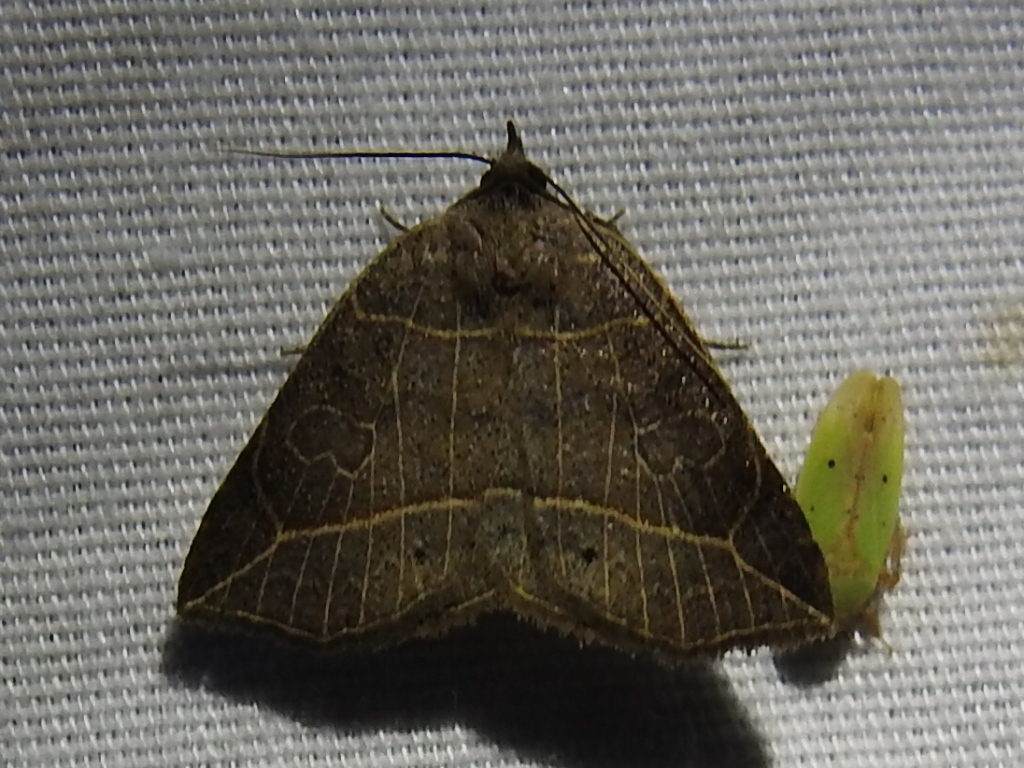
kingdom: Animalia
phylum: Arthropoda
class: Insecta
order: Lepidoptera
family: Erebidae
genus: Isogona
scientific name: Isogona tenuis
